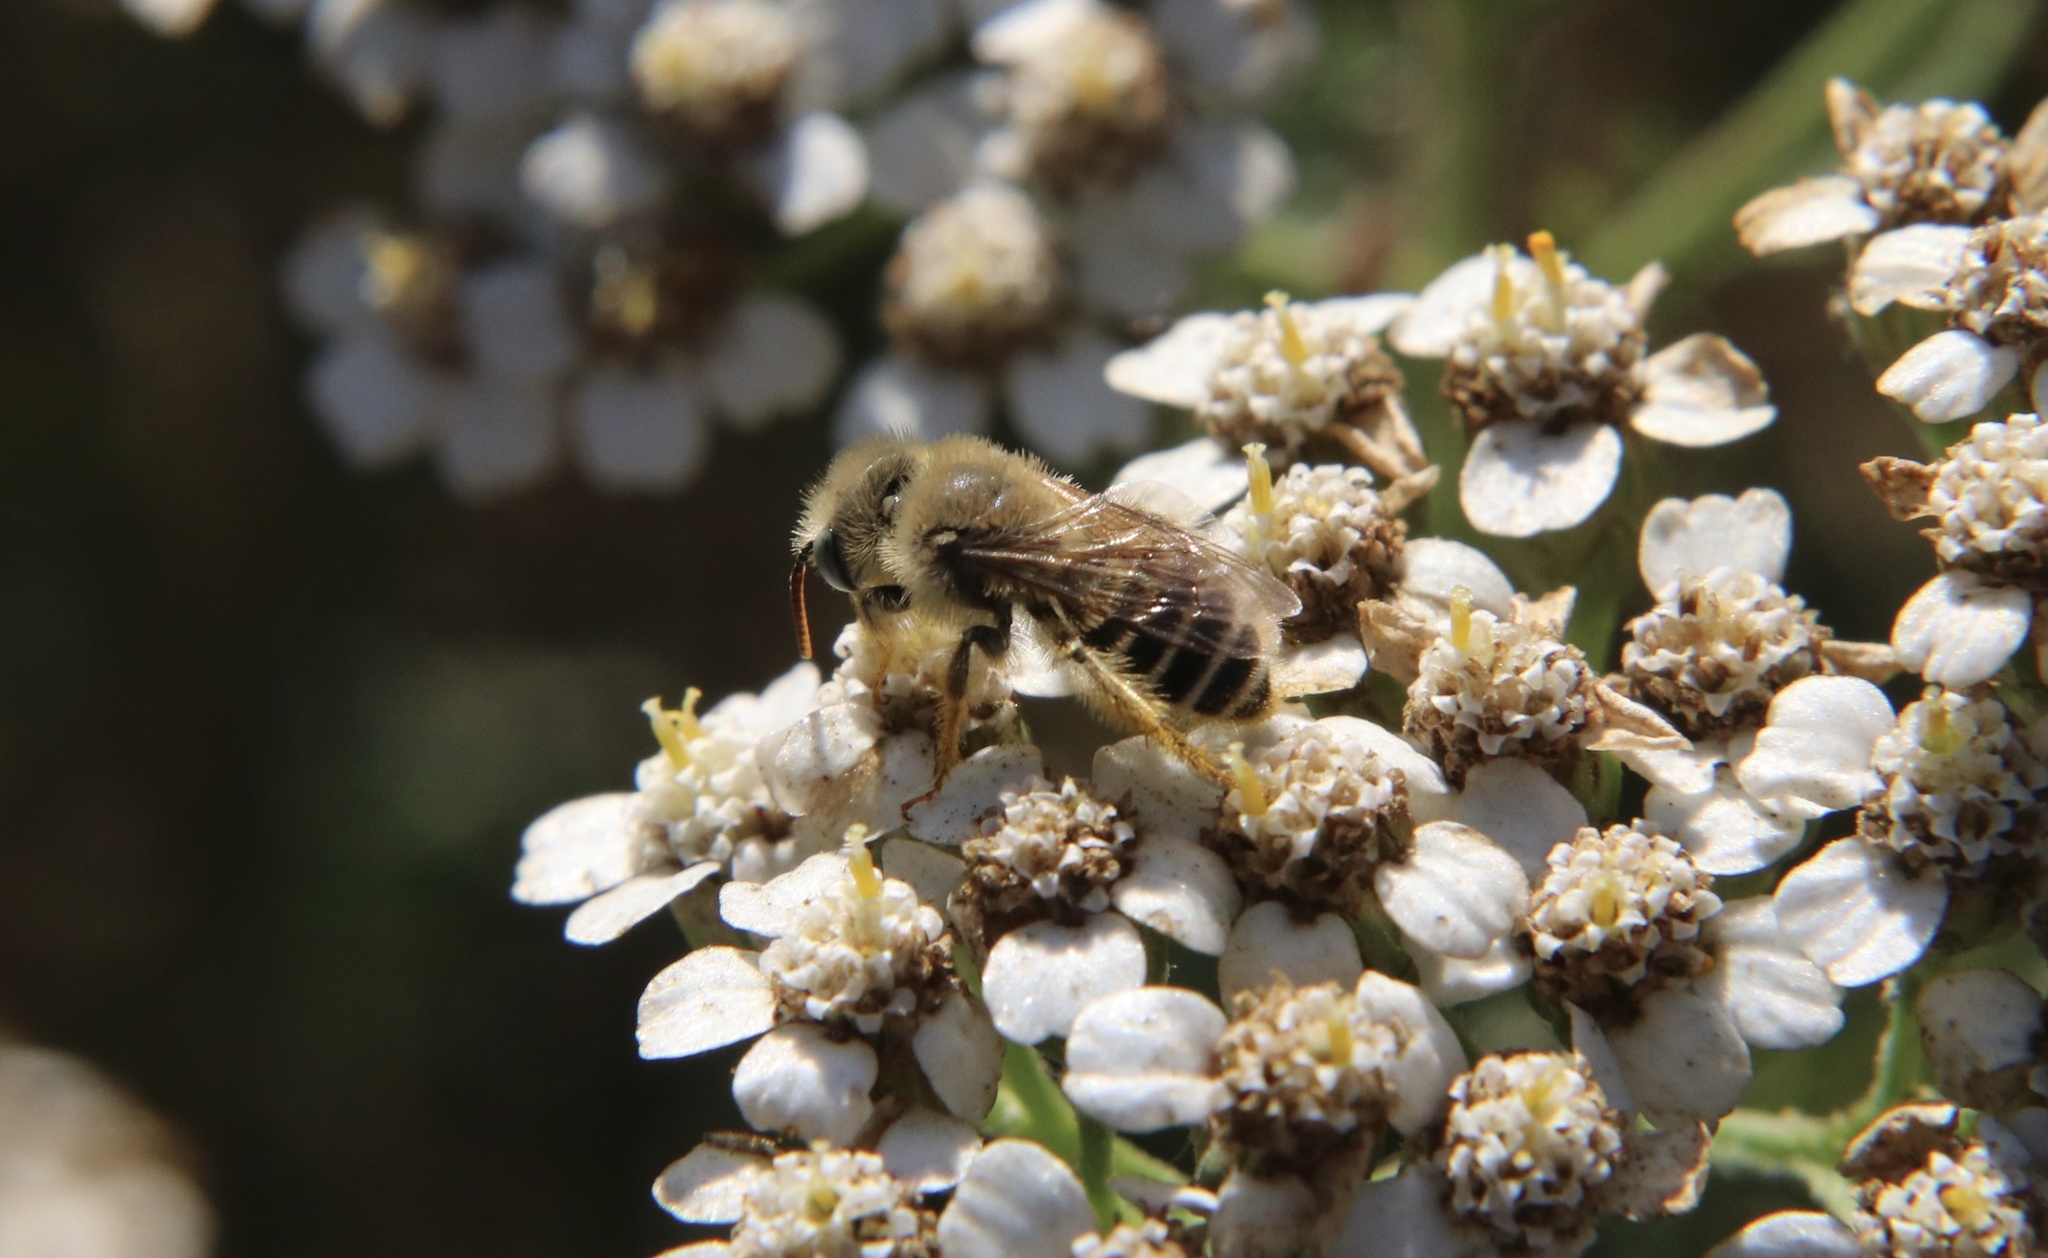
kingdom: Animalia
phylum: Arthropoda
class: Insecta
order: Hymenoptera
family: Andrenidae
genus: Acamptopoeum
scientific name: Acamptopoeum submetallicum
